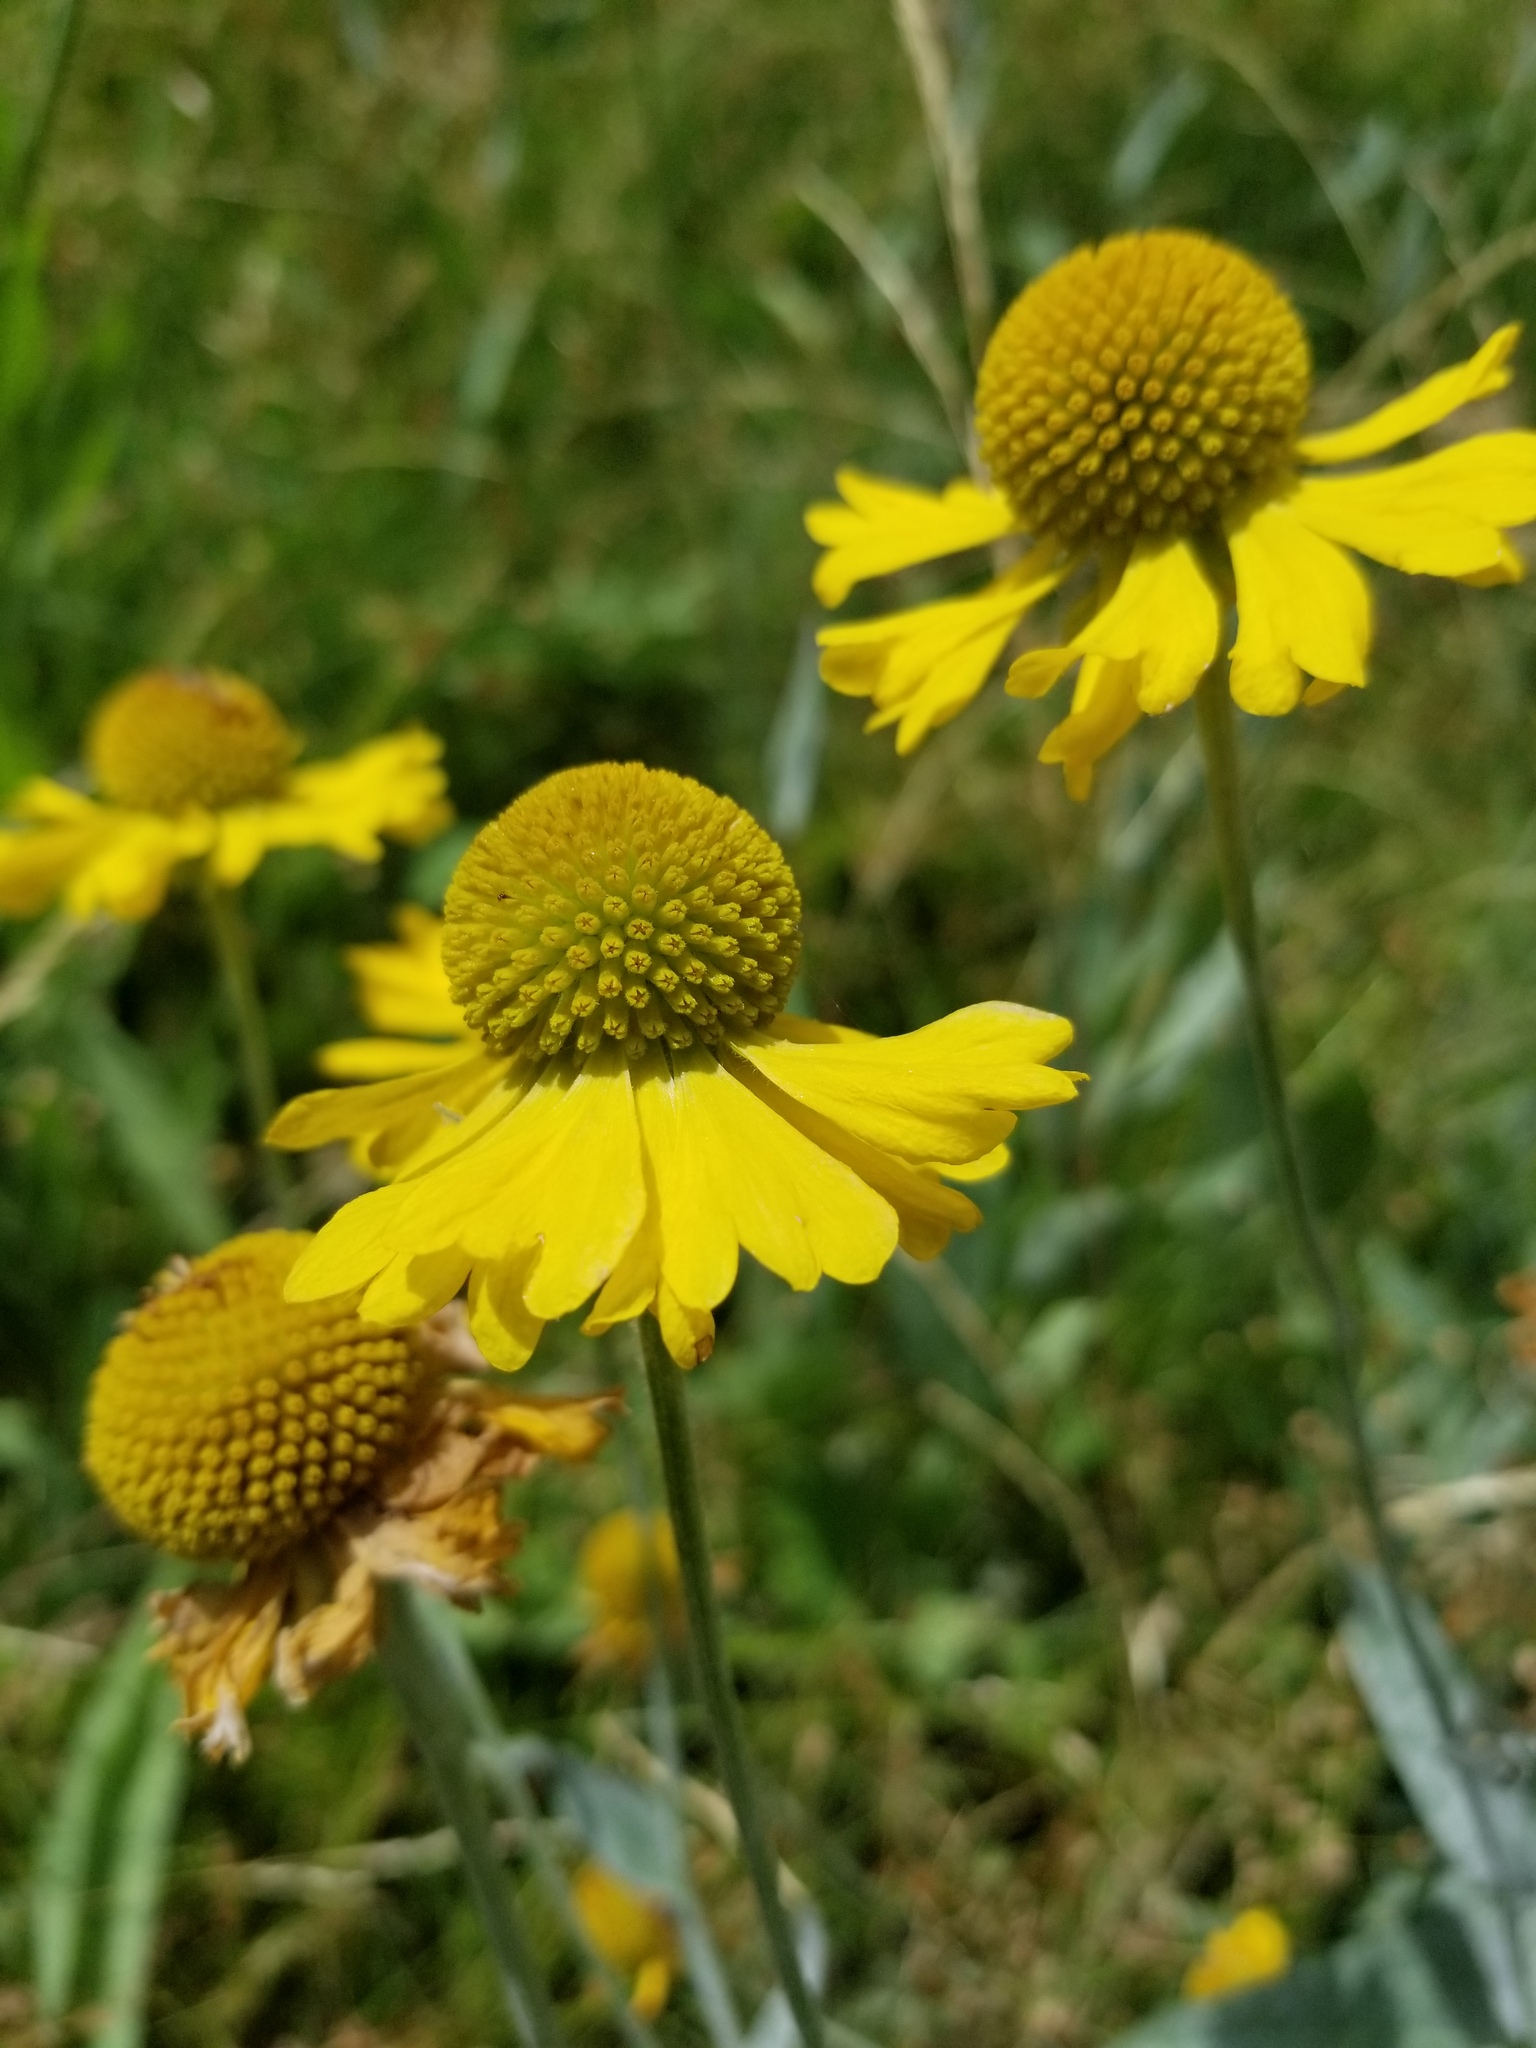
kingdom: Plantae
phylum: Tracheophyta
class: Magnoliopsida
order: Asterales
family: Asteraceae
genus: Helenium
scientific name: Helenium bigelovii
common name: Bigelow's sneezeweed
